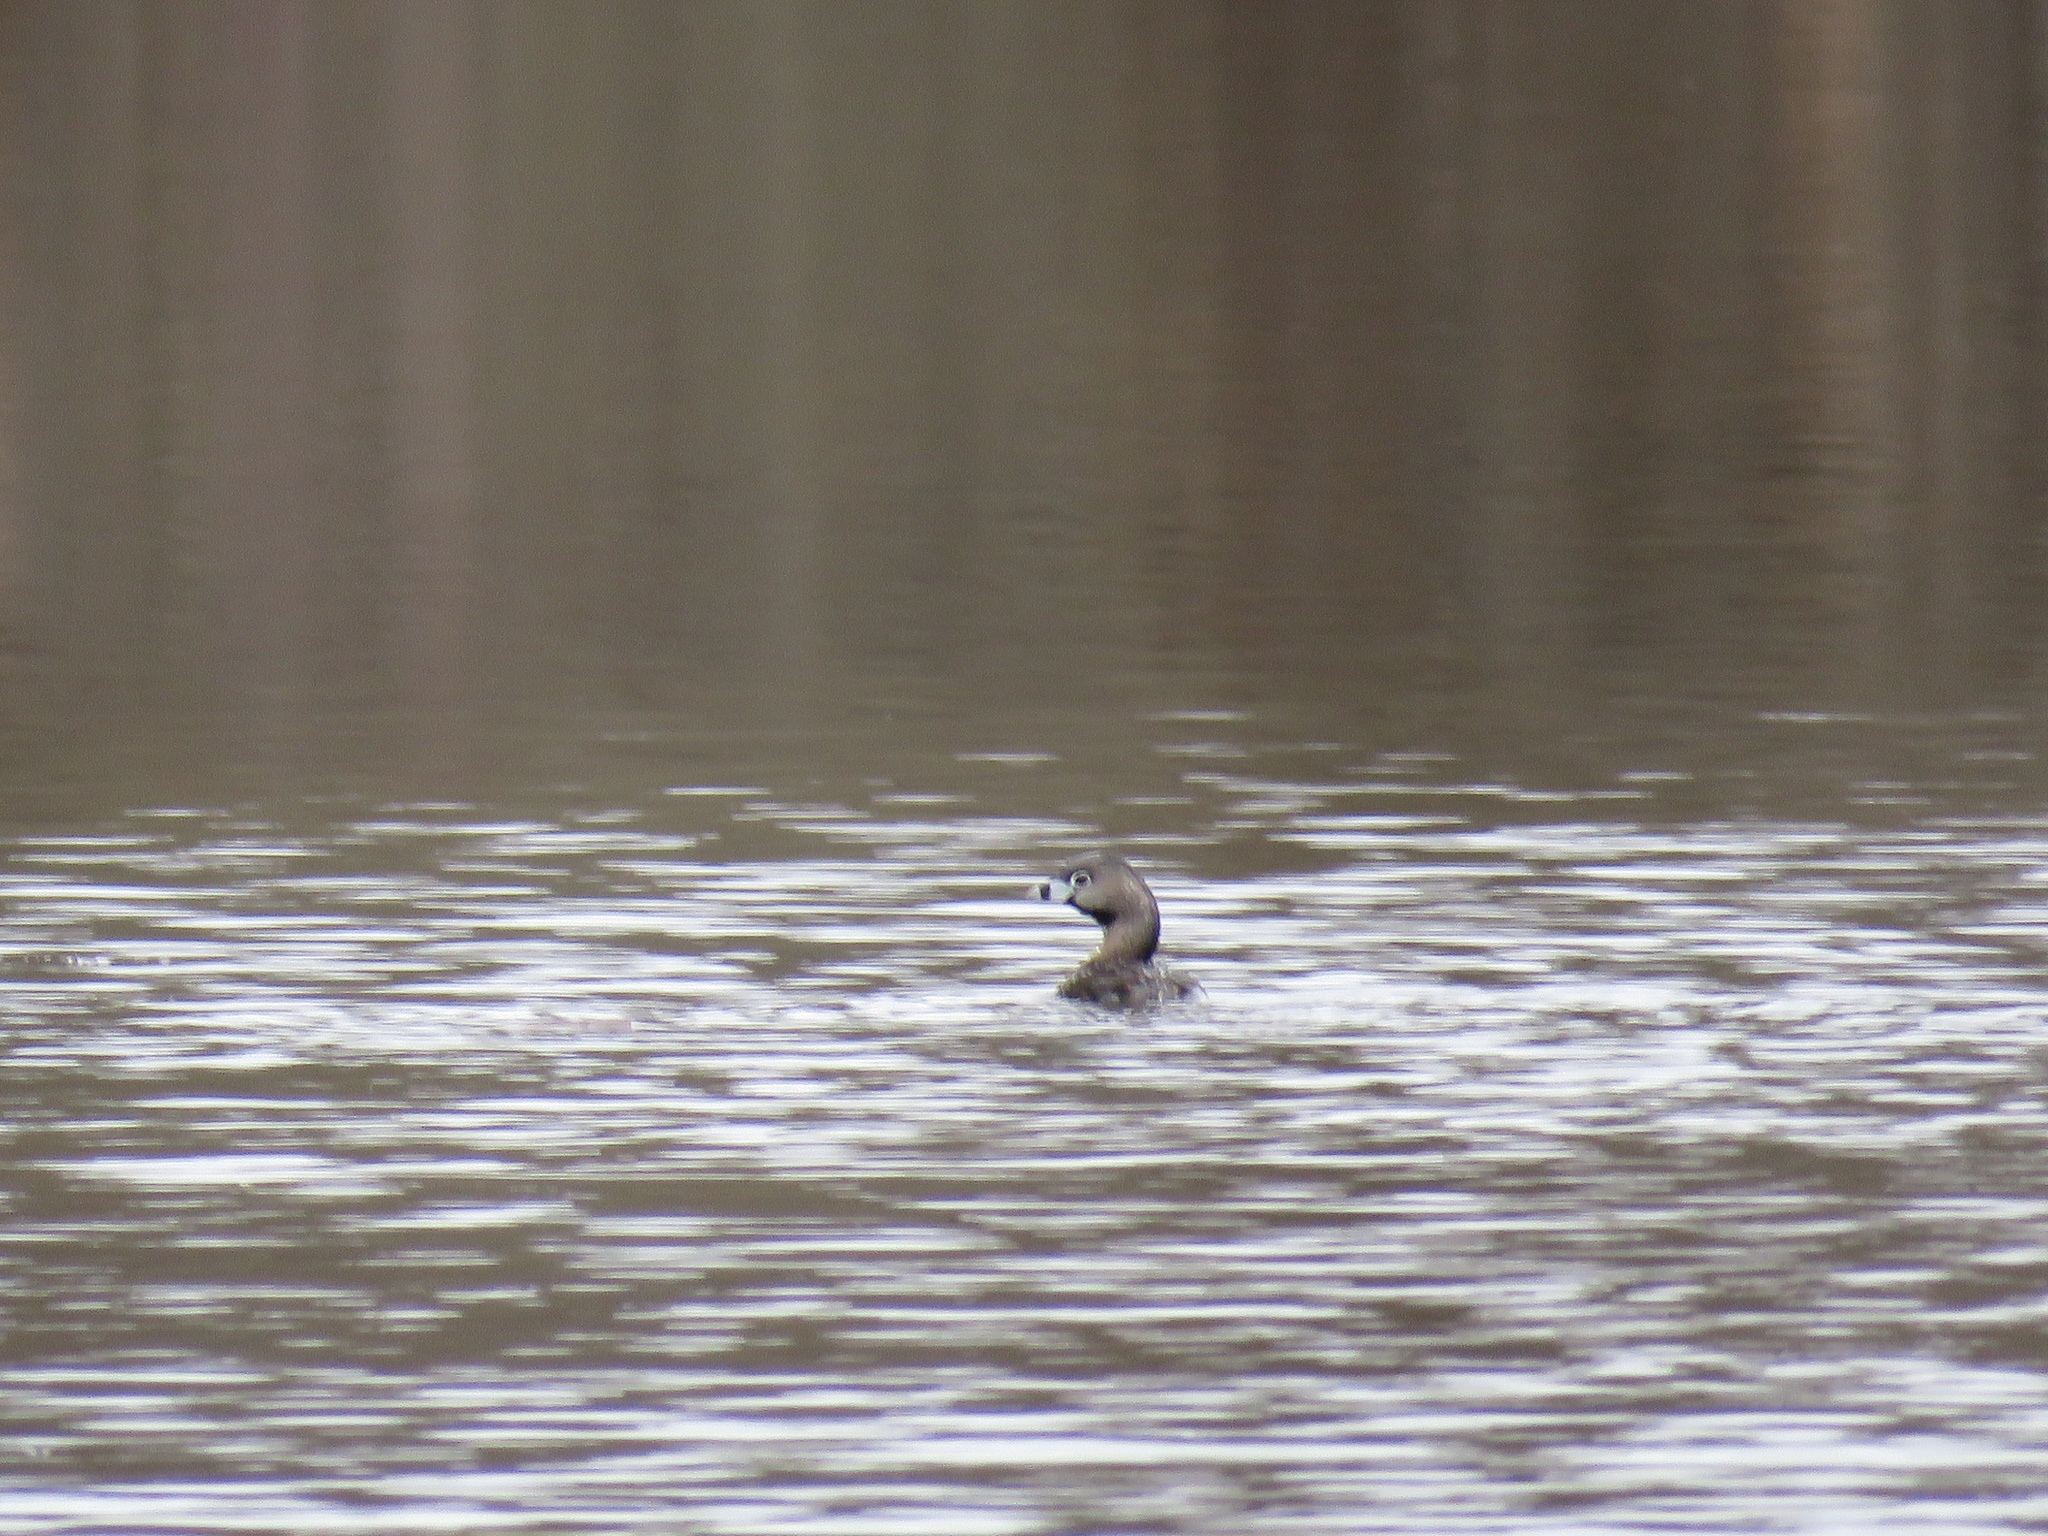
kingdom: Animalia
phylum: Chordata
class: Aves
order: Podicipediformes
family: Podicipedidae
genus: Podilymbus
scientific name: Podilymbus podiceps
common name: Pied-billed grebe
